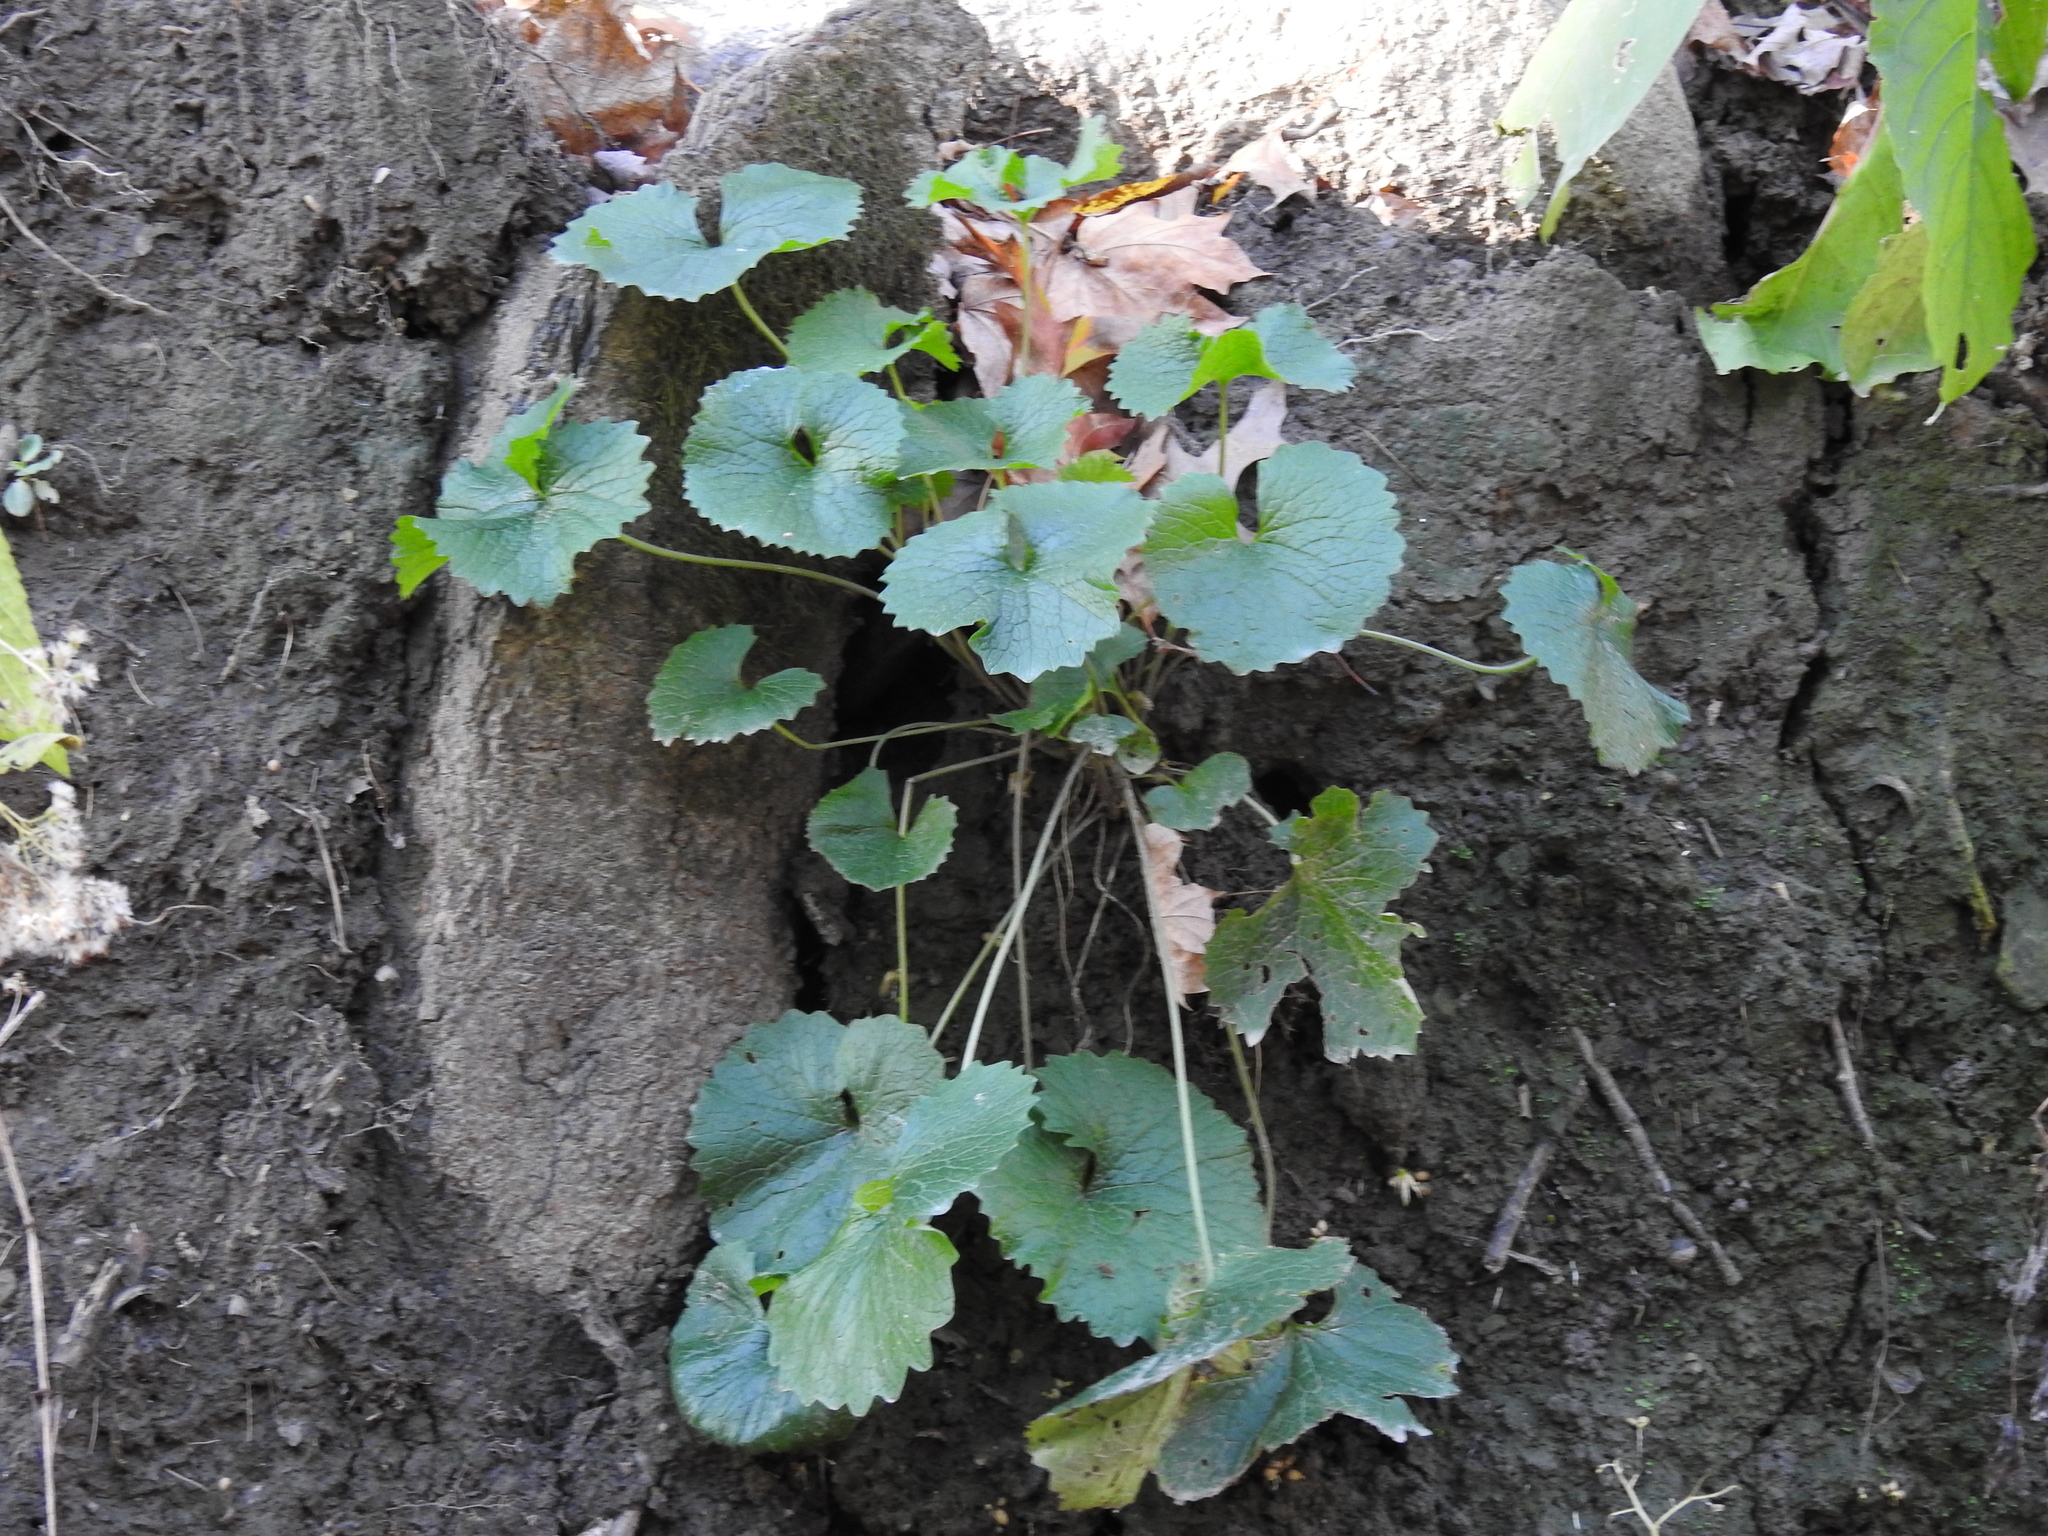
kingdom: Plantae
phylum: Tracheophyta
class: Magnoliopsida
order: Brassicales
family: Brassicaceae
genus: Alliaria
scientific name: Alliaria petiolata
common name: Garlic mustard
